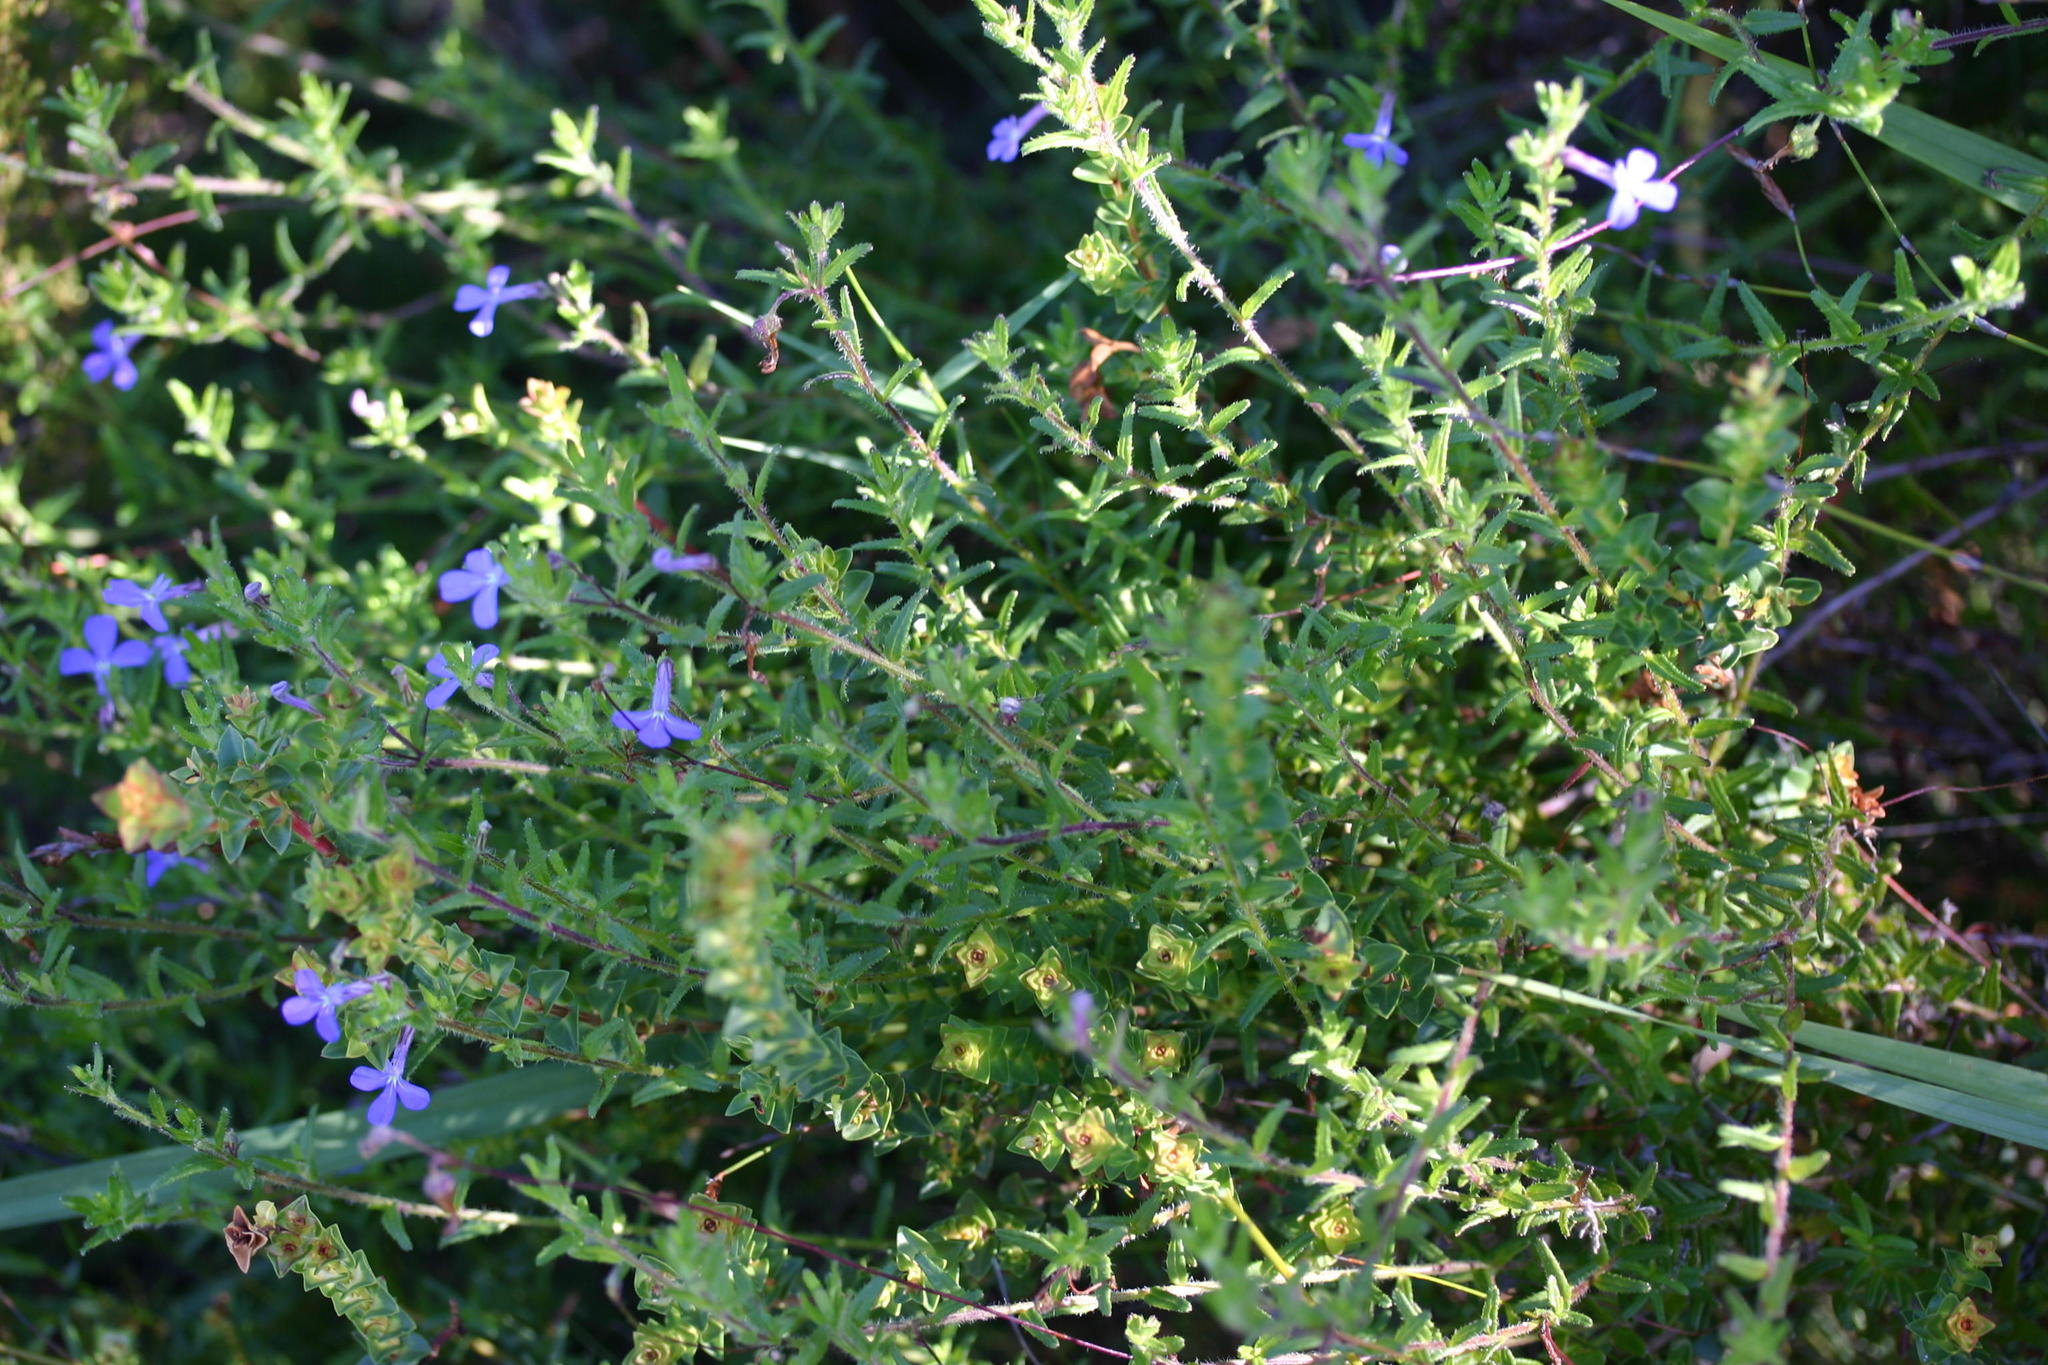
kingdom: Plantae
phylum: Tracheophyta
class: Magnoliopsida
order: Asterales
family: Campanulaceae
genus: Lobelia
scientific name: Lobelia neglecta
